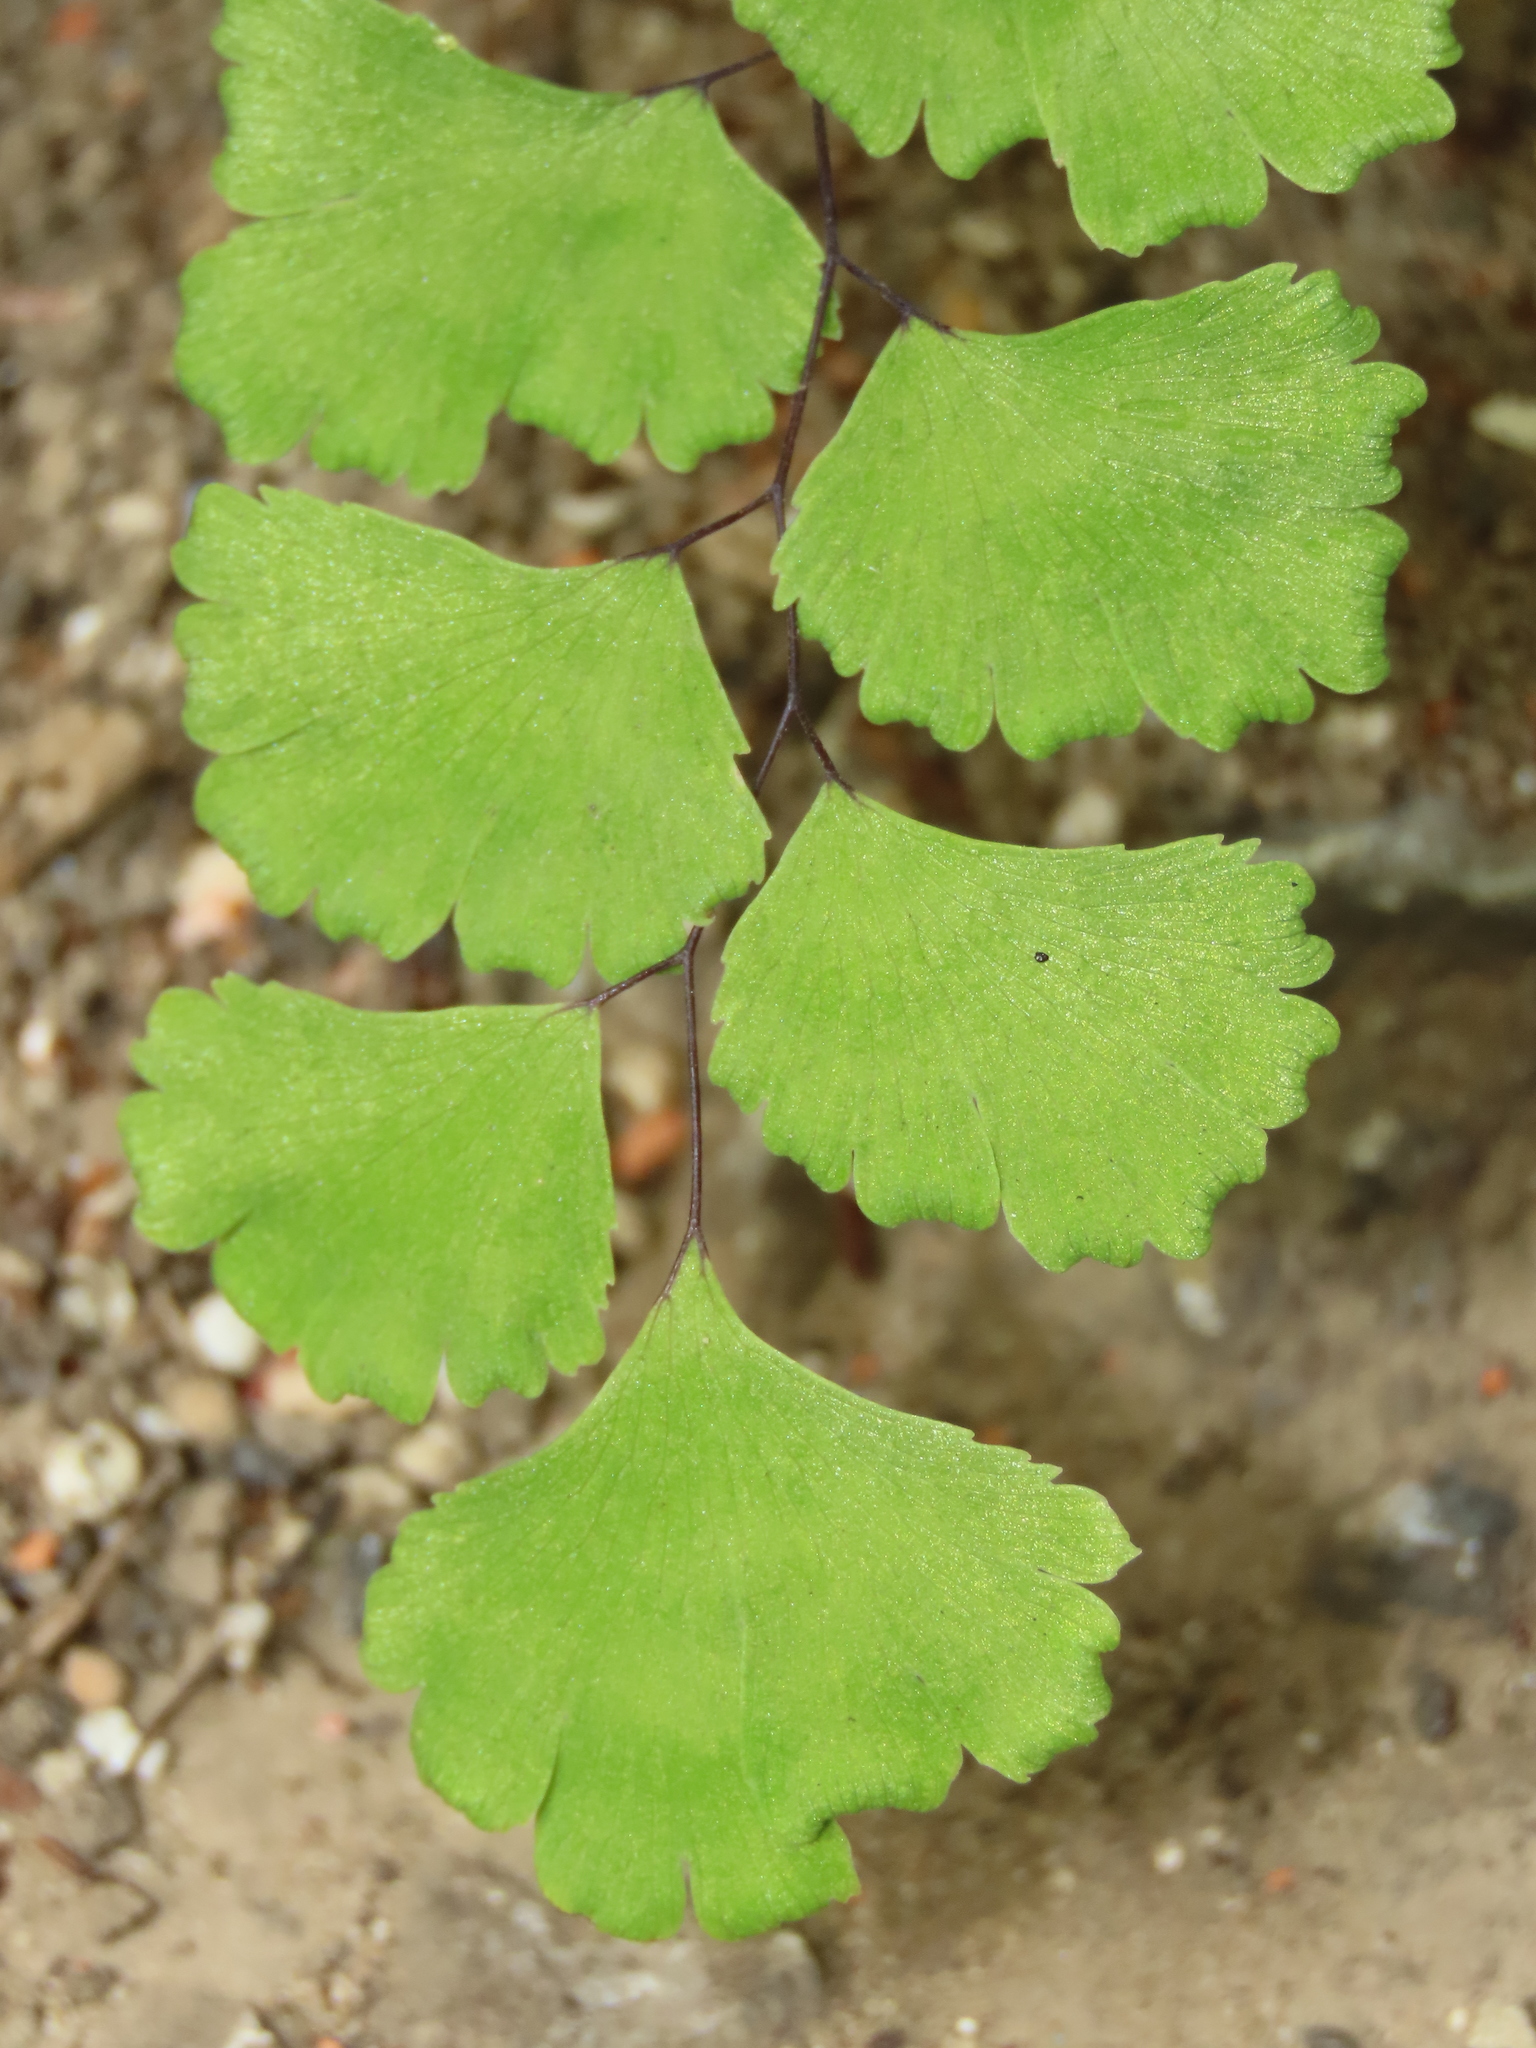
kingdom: Plantae
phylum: Tracheophyta
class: Polypodiopsida
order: Polypodiales
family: Pteridaceae
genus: Adiantum
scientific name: Adiantum capillus-veneris
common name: Maidenhair fern
